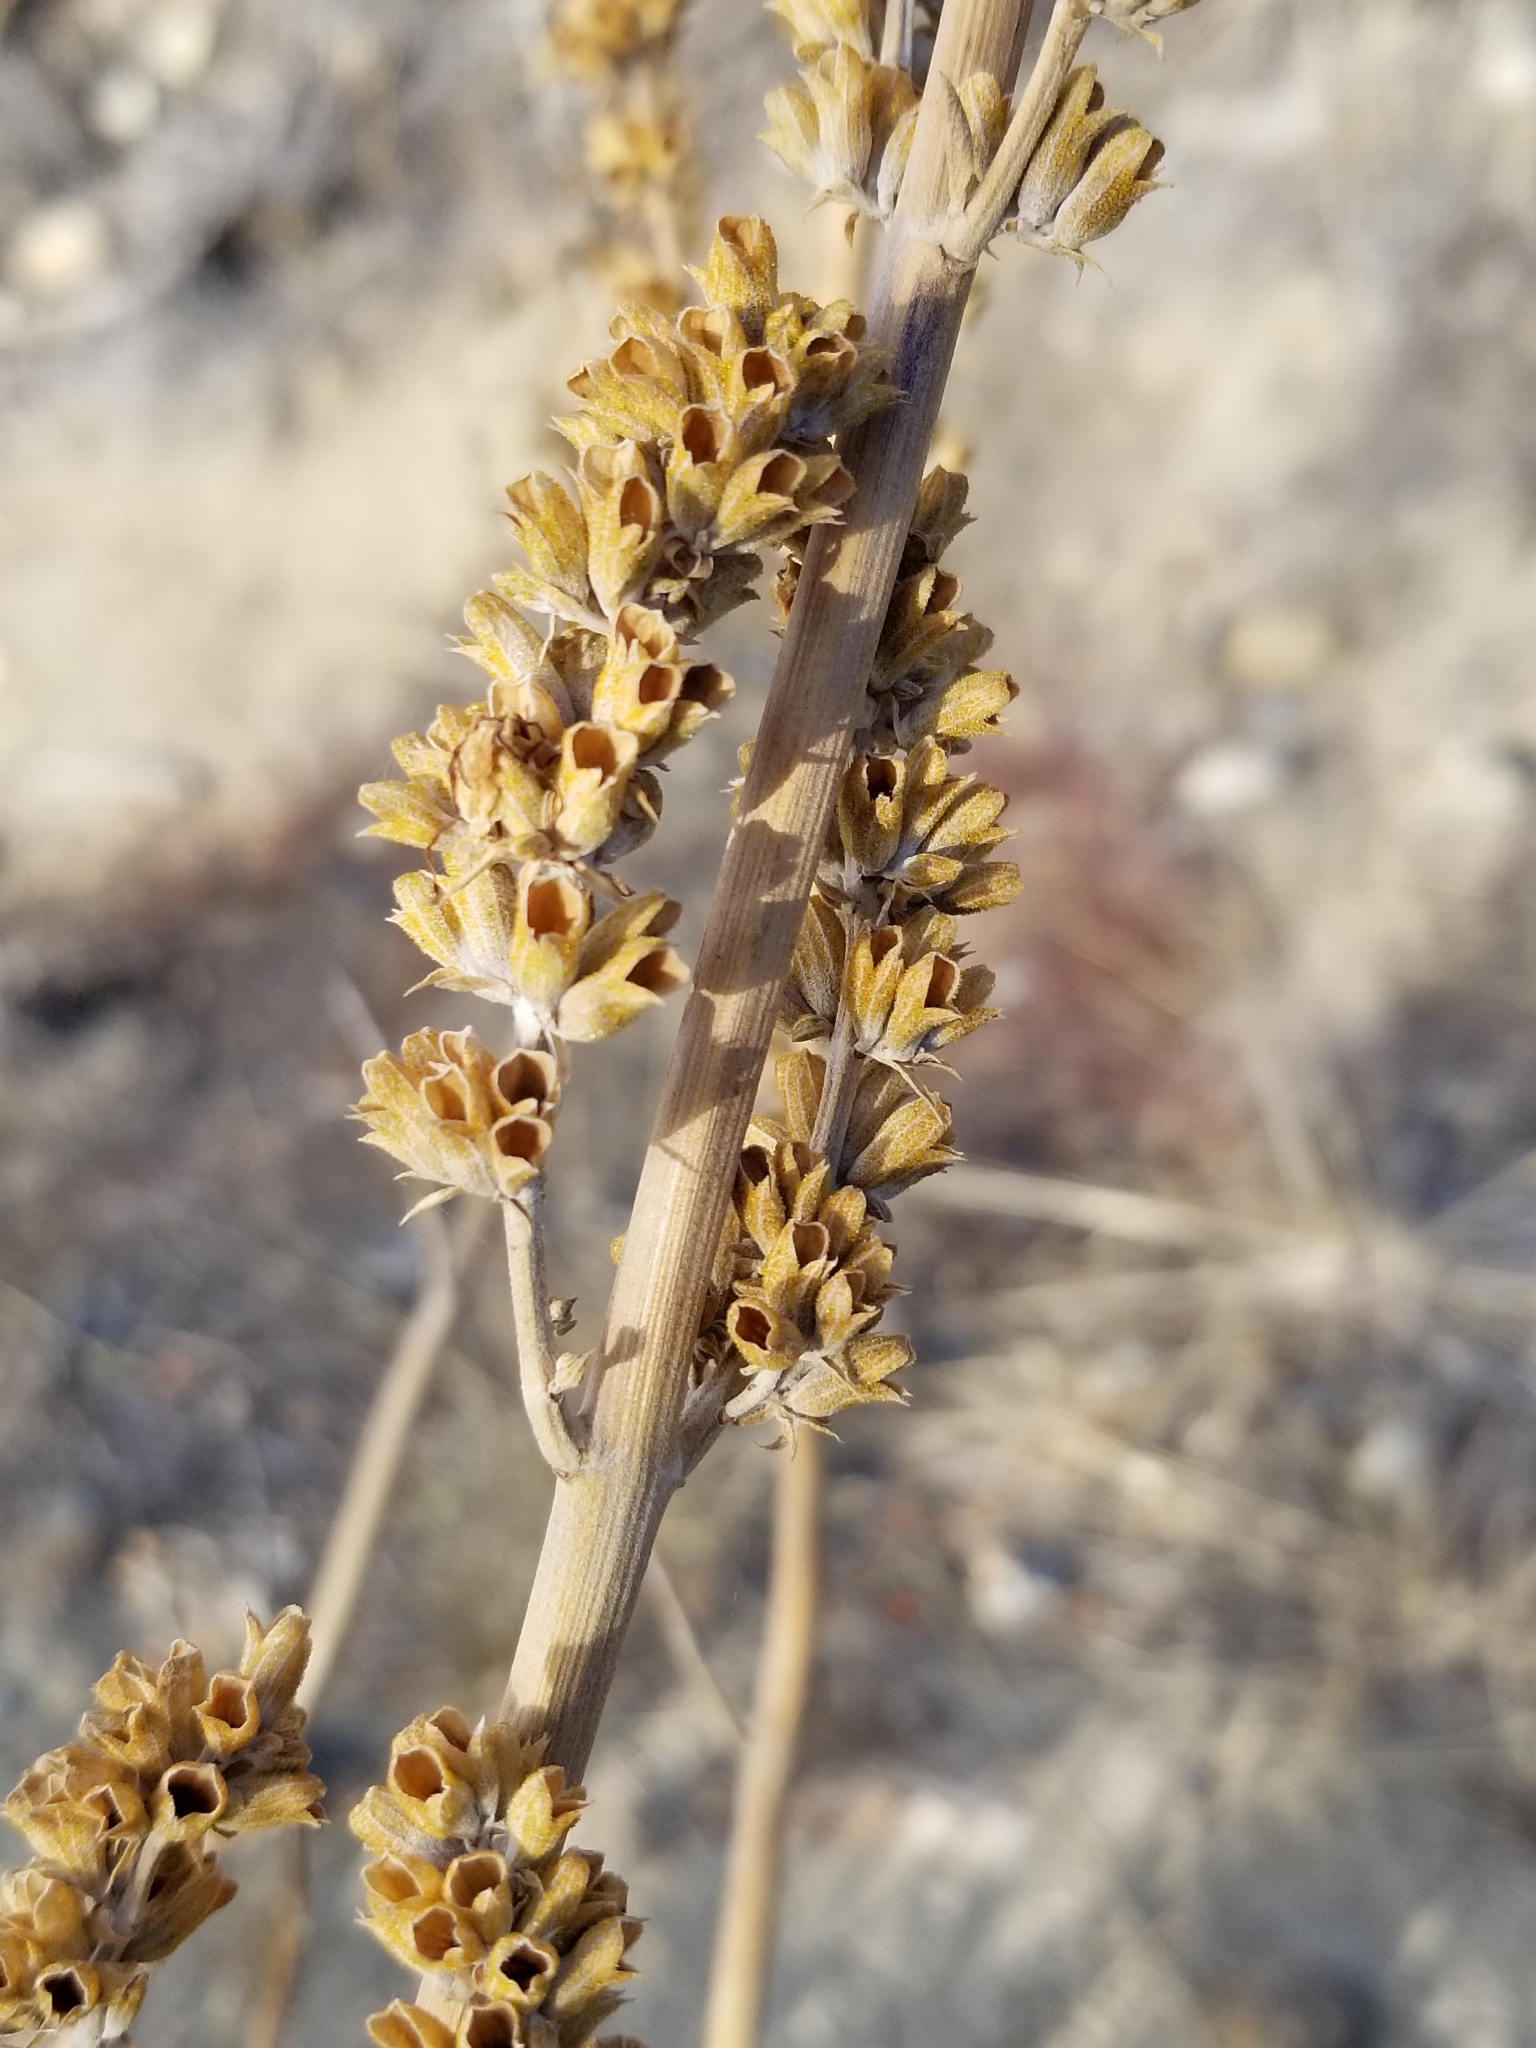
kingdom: Plantae
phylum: Tracheophyta
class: Magnoliopsida
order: Lamiales
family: Lamiaceae
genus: Salvia
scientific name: Salvia apiana
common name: White sage
